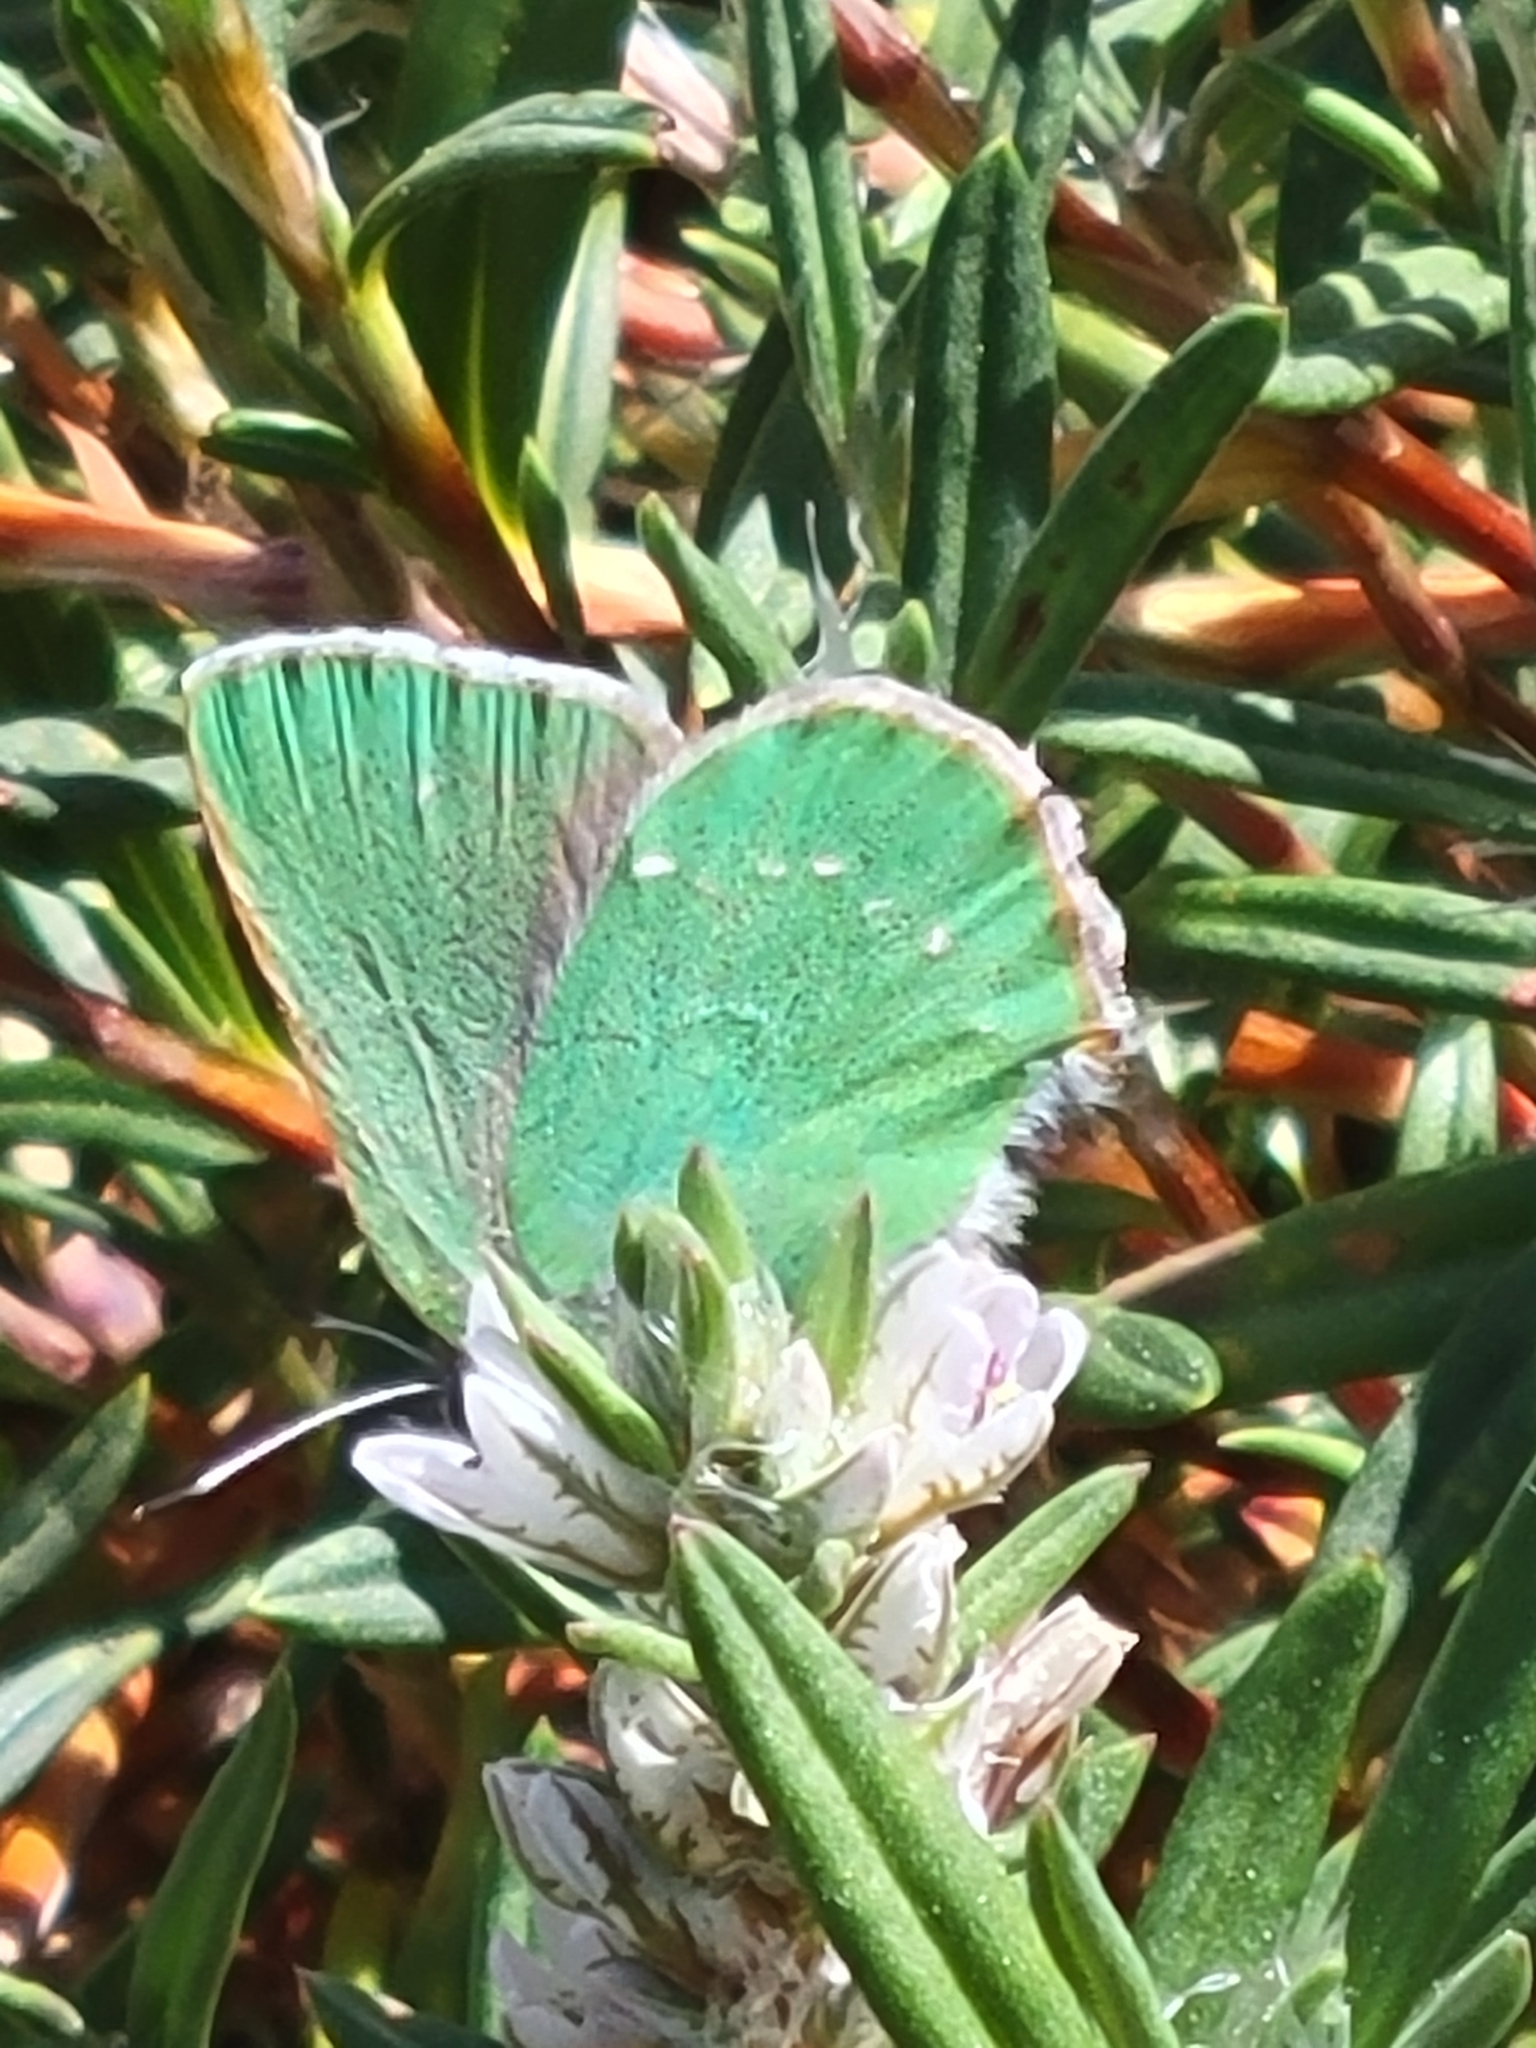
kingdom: Animalia
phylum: Arthropoda
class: Insecta
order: Lepidoptera
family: Lycaenidae
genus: Callophrys
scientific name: Callophrys viridis
